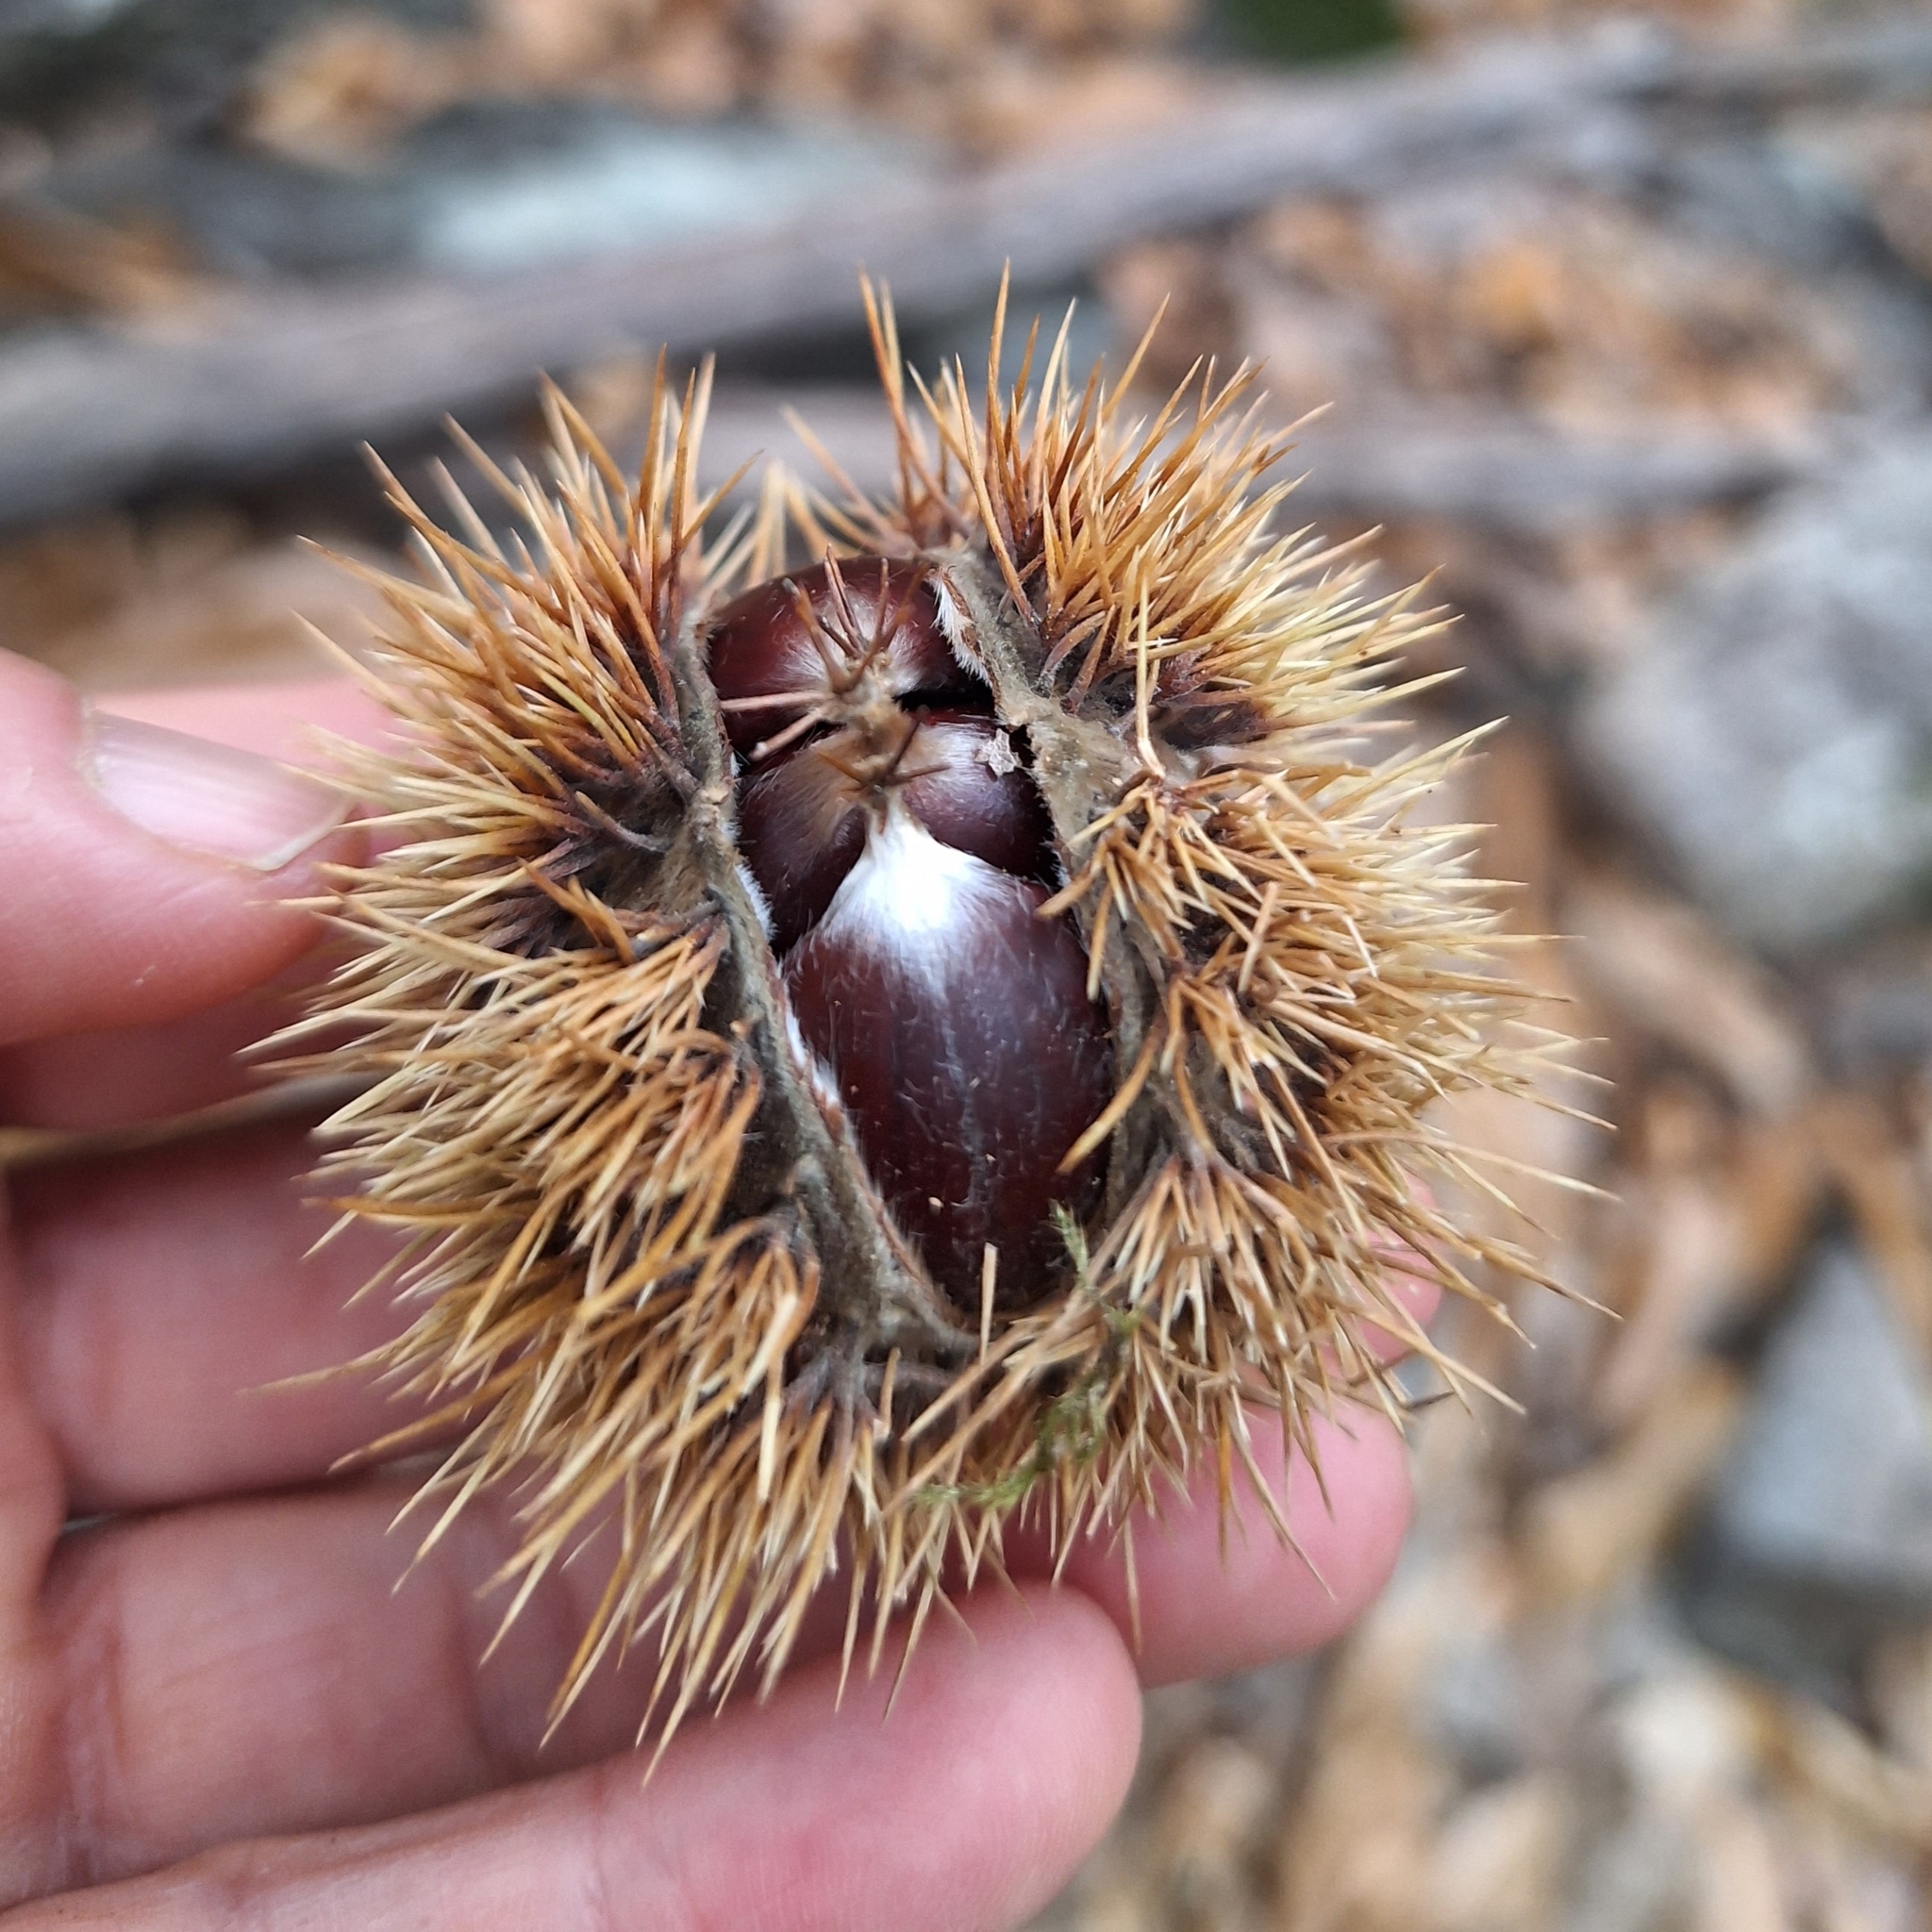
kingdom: Plantae
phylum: Tracheophyta
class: Magnoliopsida
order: Fagales
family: Fagaceae
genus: Castanea
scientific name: Castanea sativa
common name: Sweet chestnut
